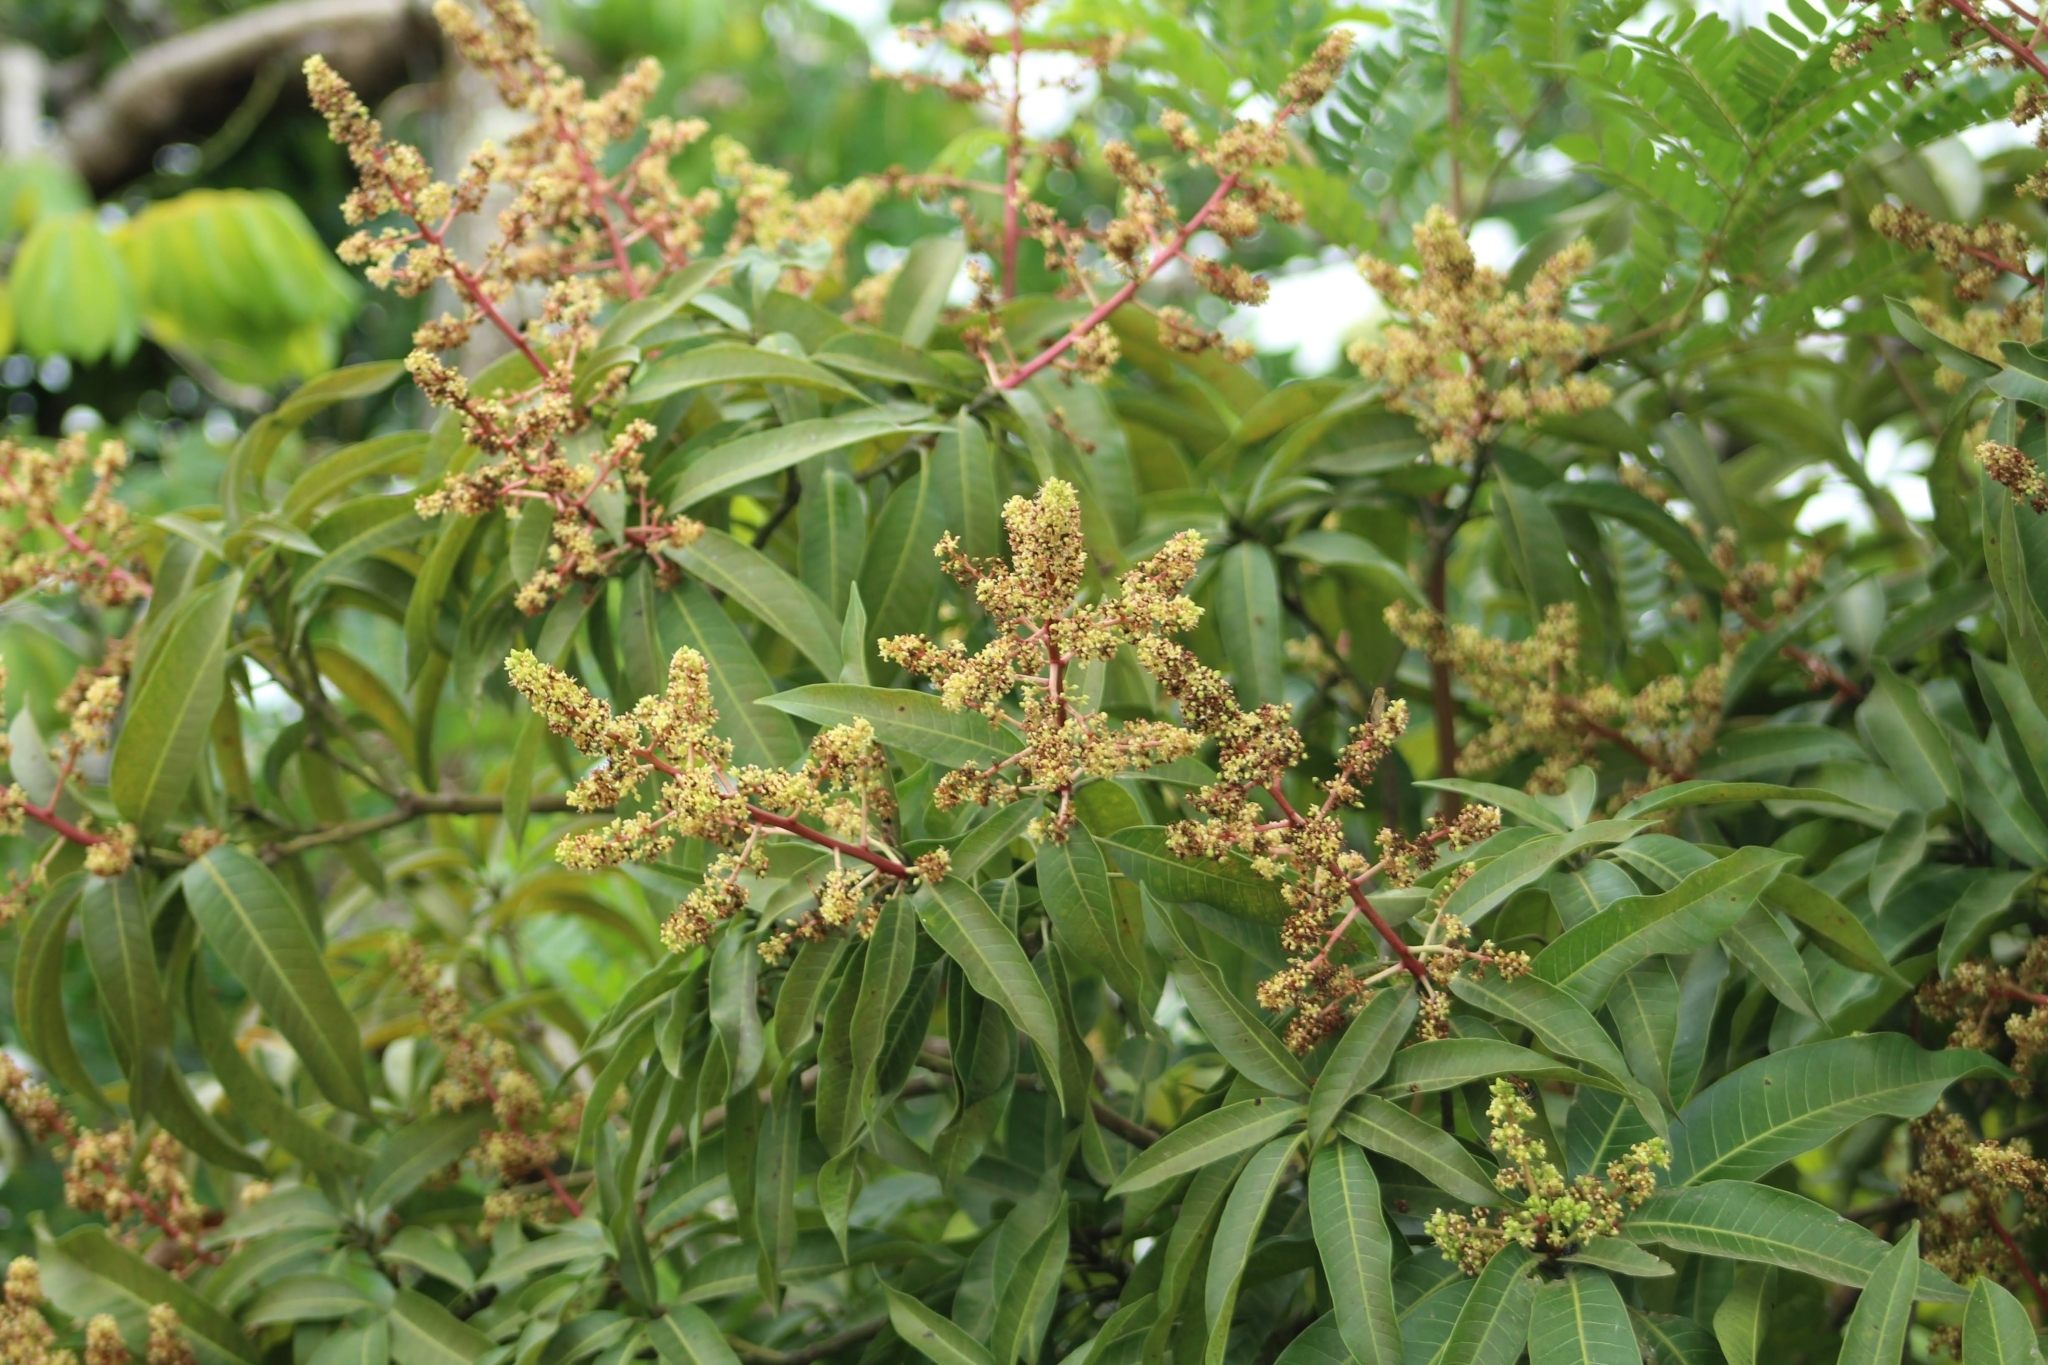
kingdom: Plantae
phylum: Tracheophyta
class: Magnoliopsida
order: Sapindales
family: Anacardiaceae
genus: Mangifera
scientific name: Mangifera indica
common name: Mango
